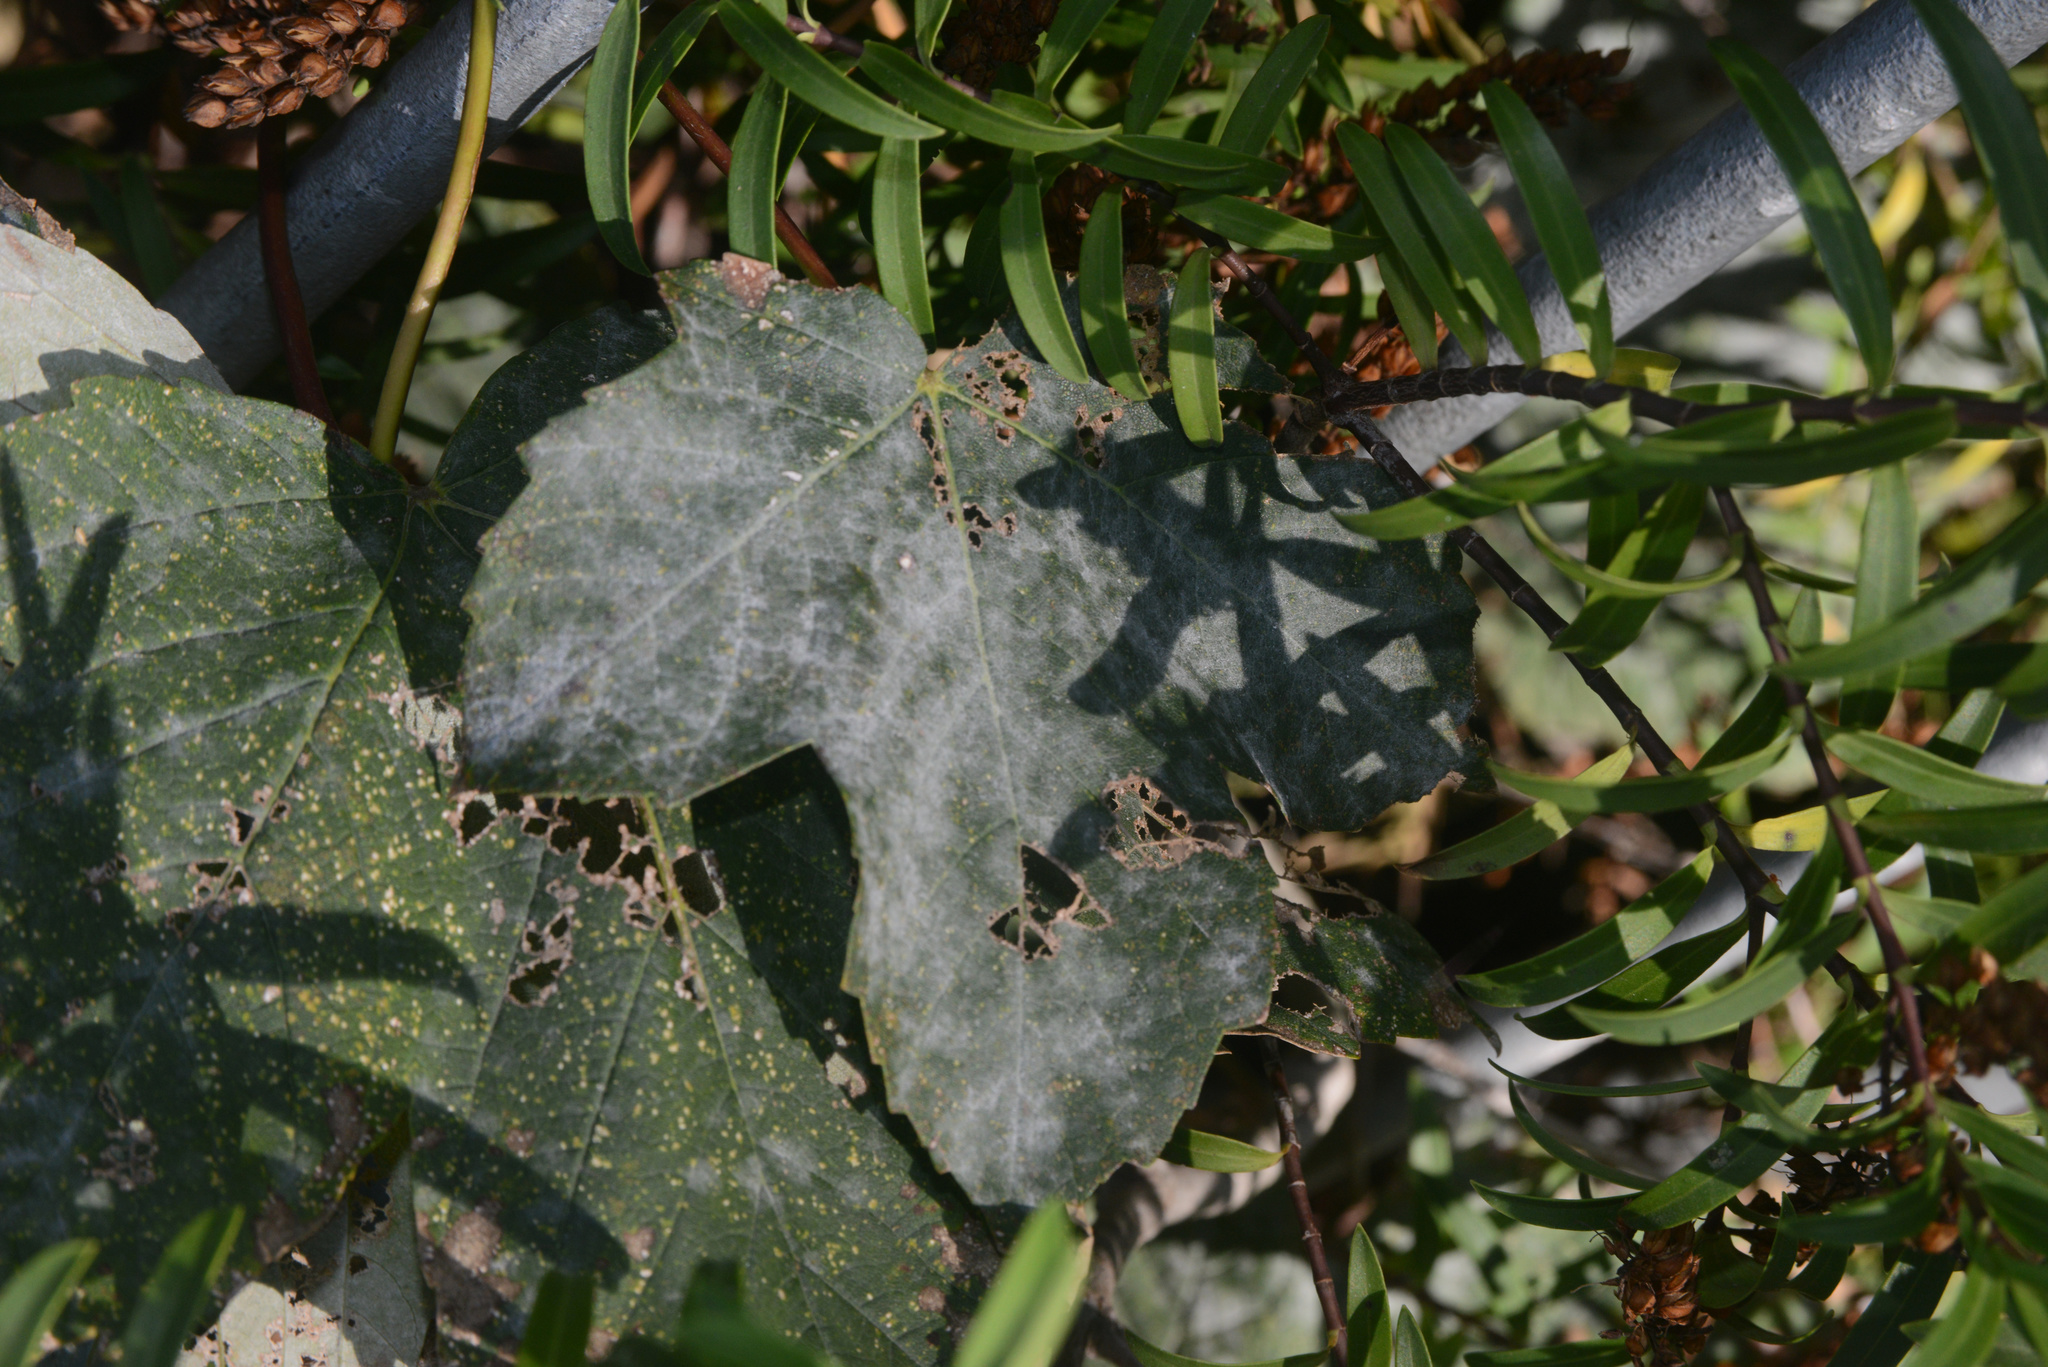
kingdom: Fungi
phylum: Ascomycota
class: Leotiomycetes
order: Helotiales
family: Erysiphaceae
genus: Sawadaea
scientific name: Sawadaea bicornis
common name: Maple mildew
